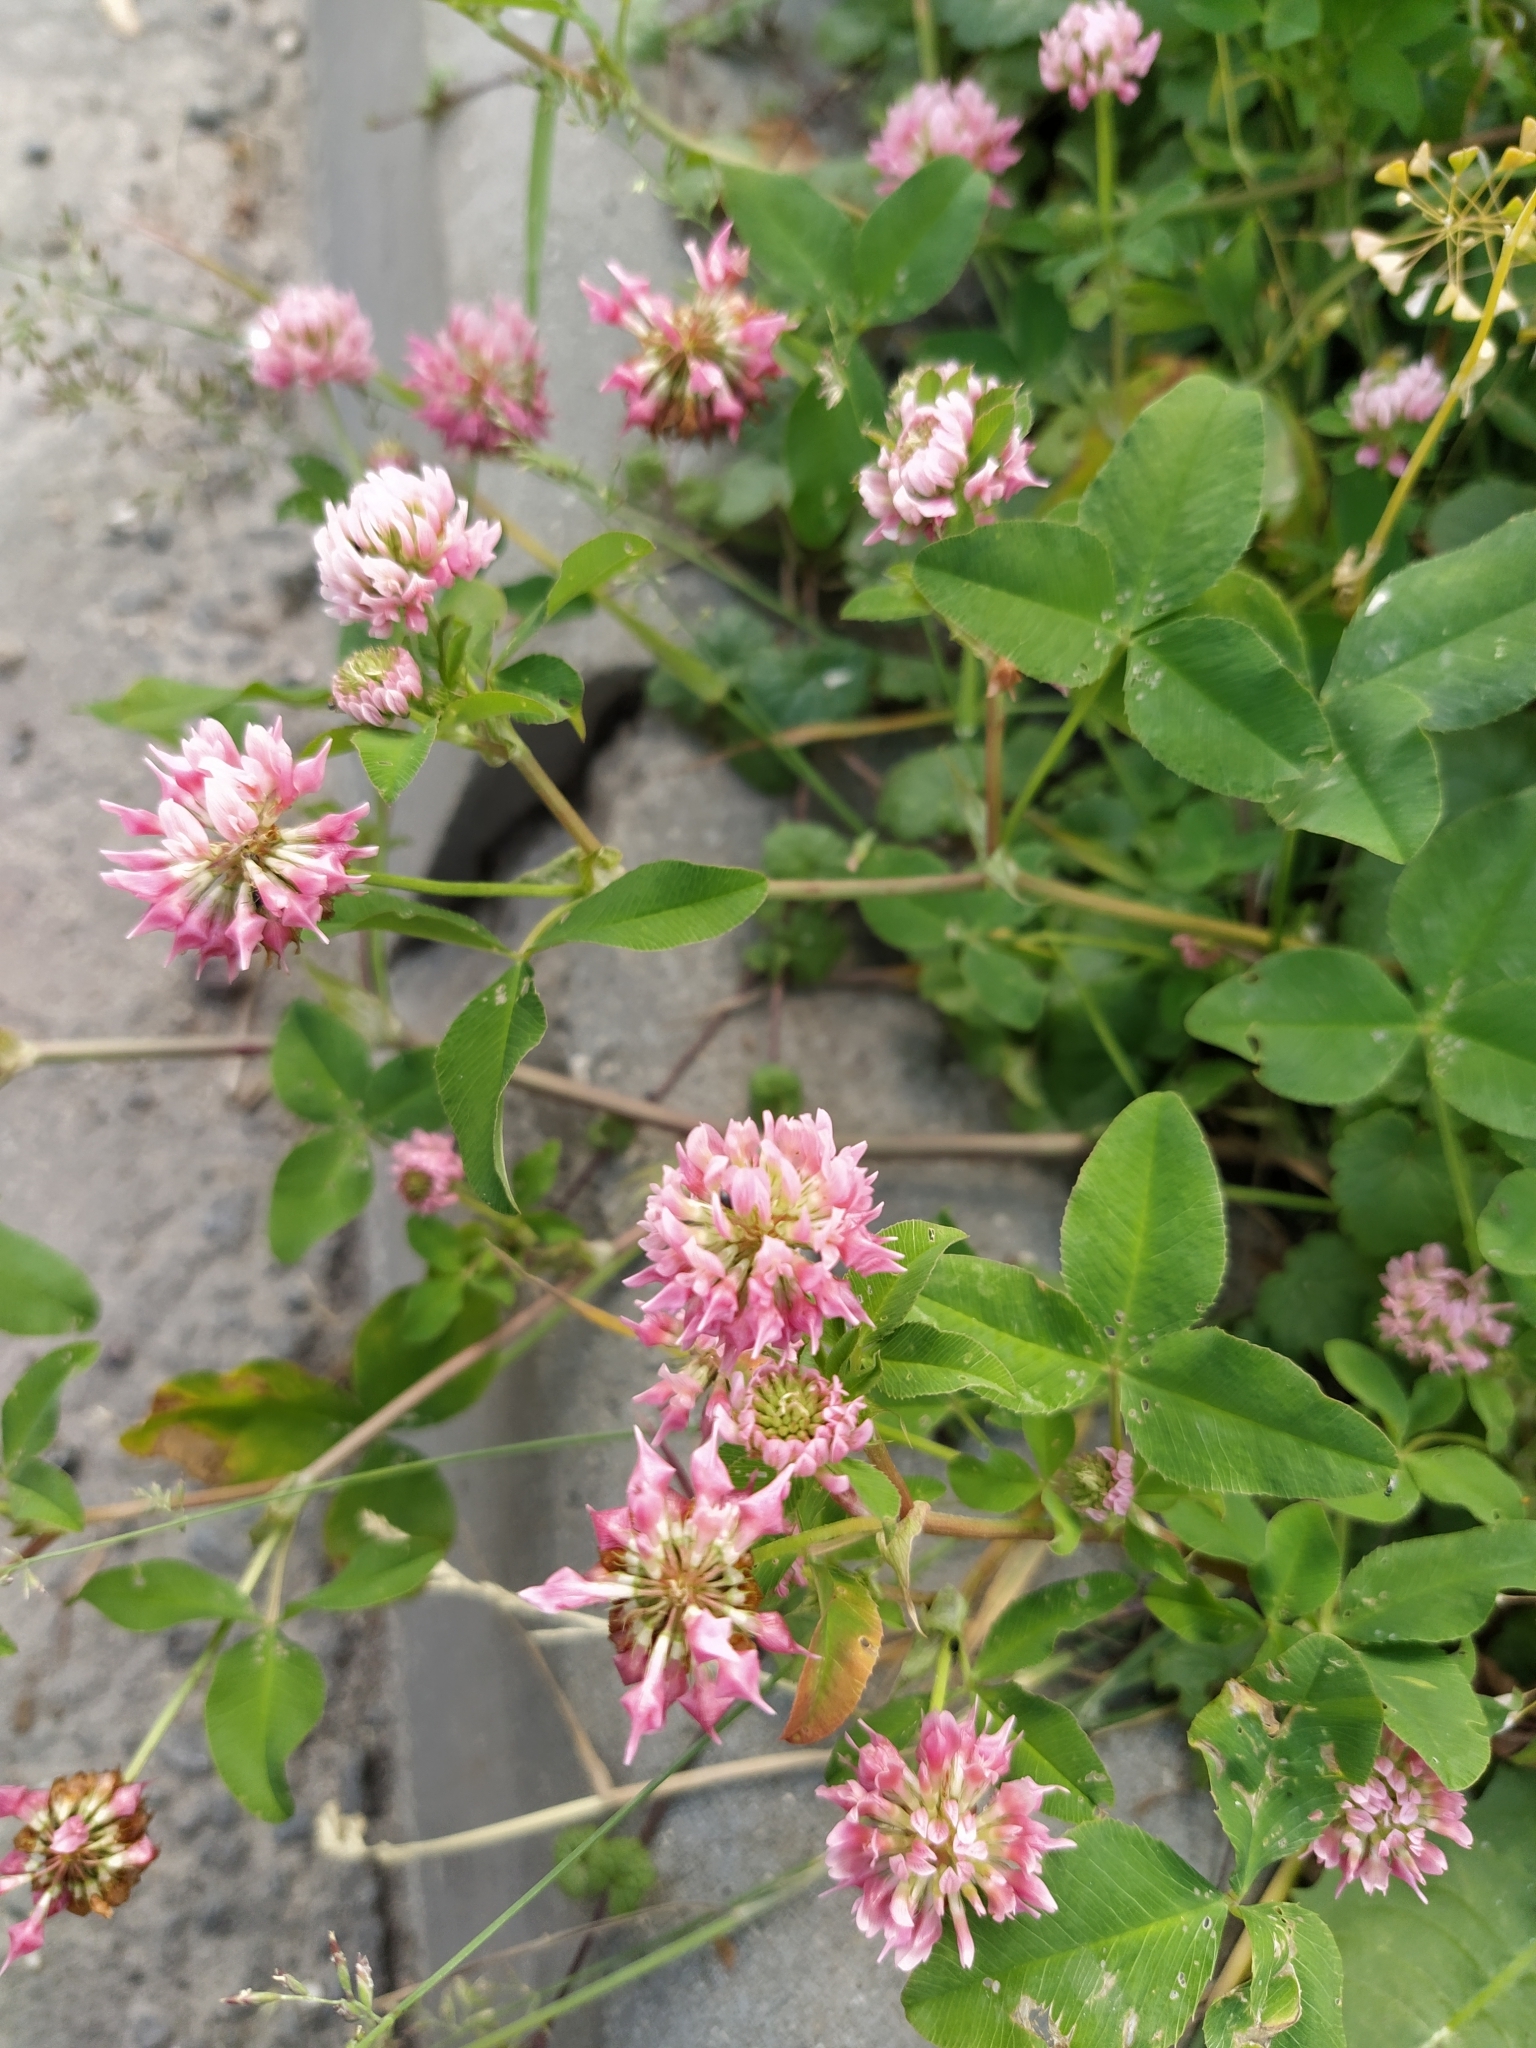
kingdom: Plantae
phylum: Tracheophyta
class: Magnoliopsida
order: Fabales
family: Fabaceae
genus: Trifolium
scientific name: Trifolium hybridum
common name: Alsike clover
